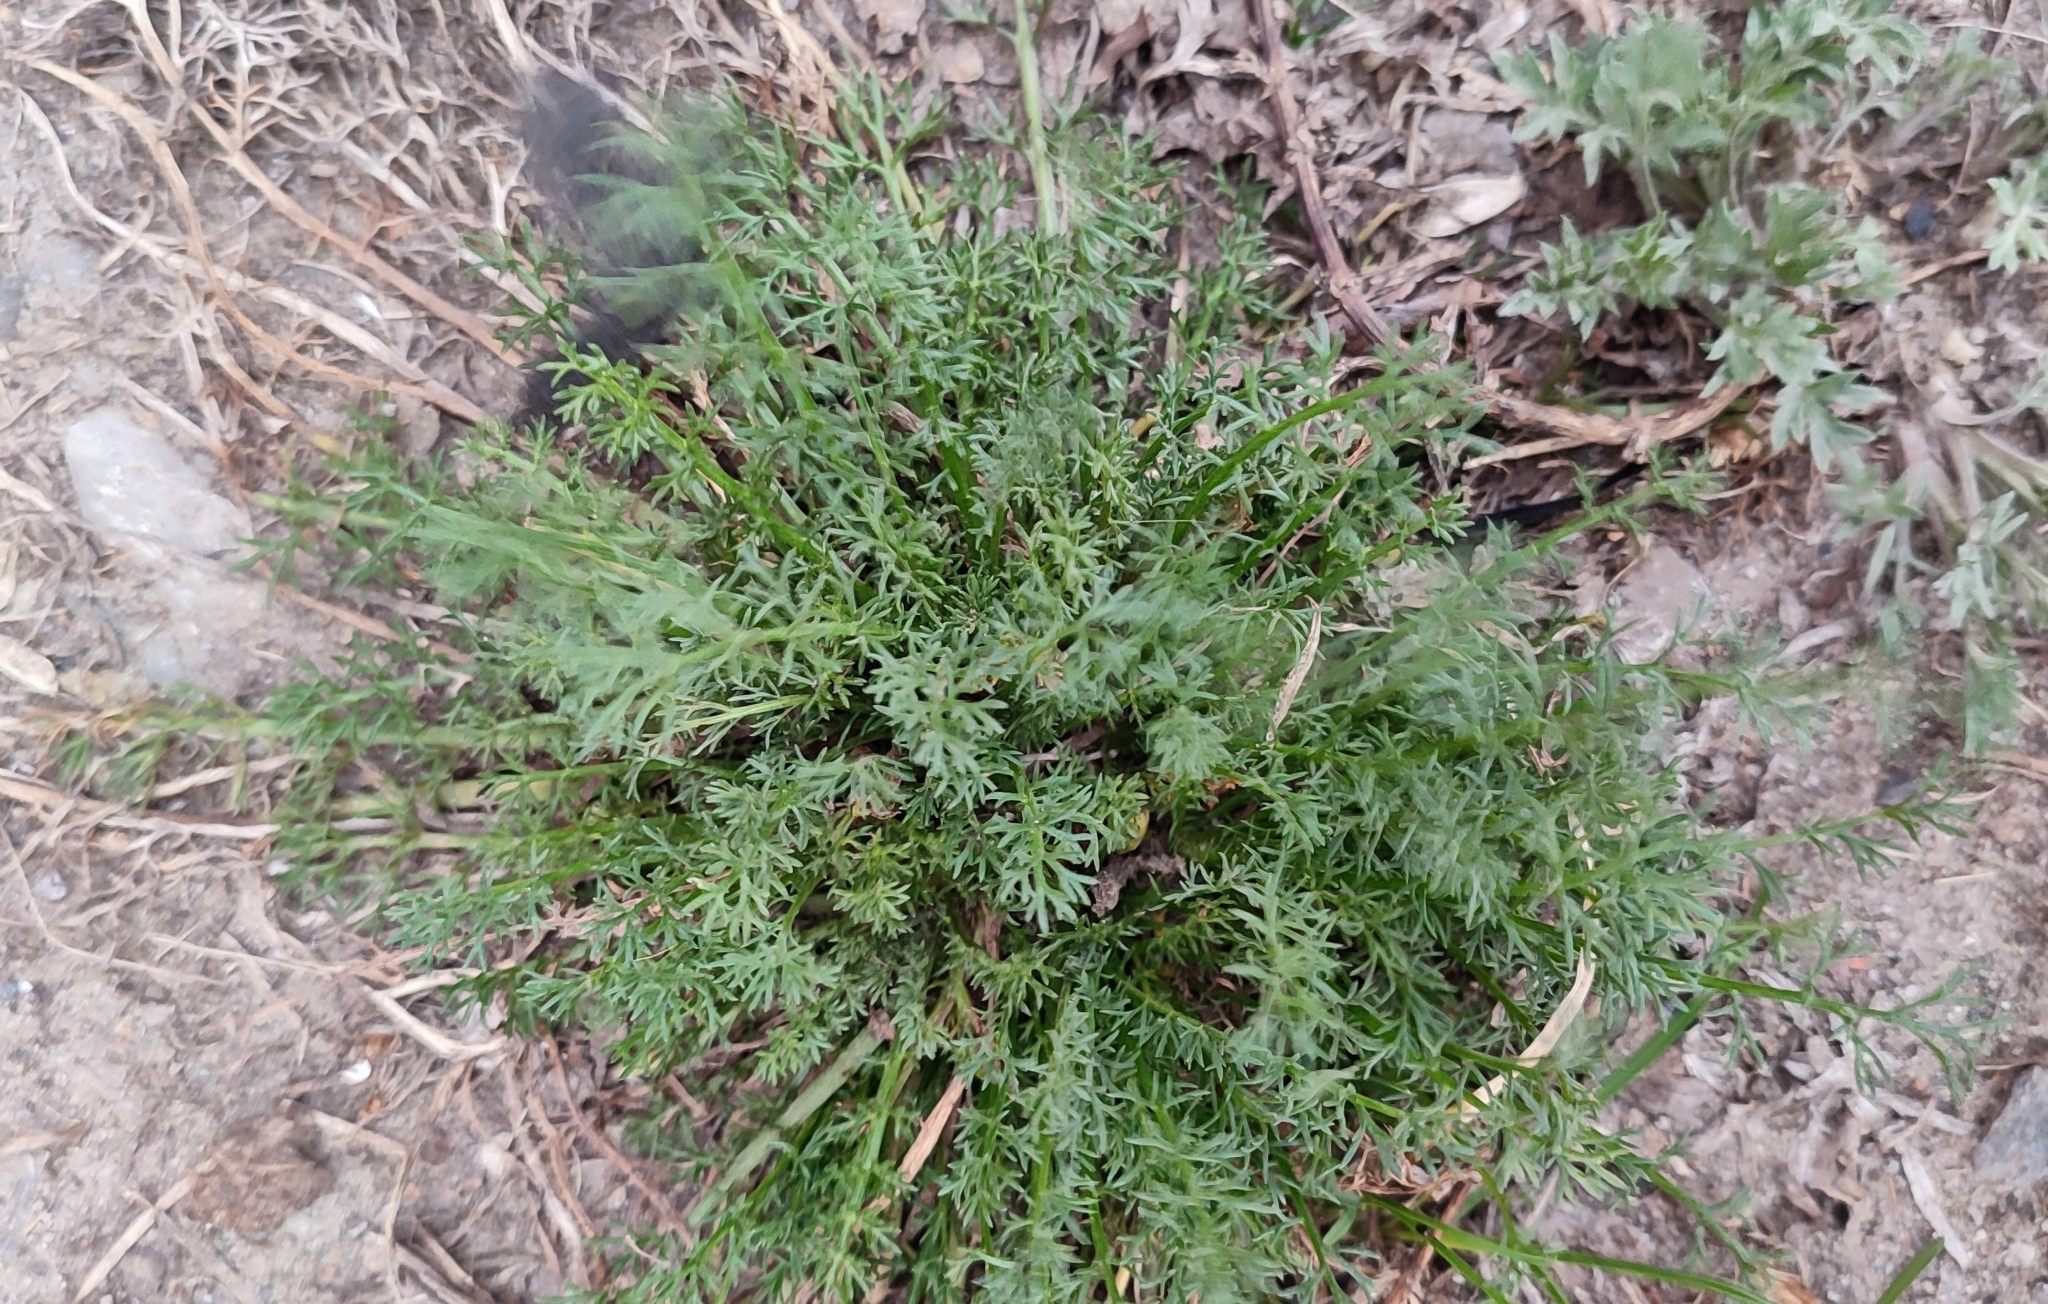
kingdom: Plantae
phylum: Tracheophyta
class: Magnoliopsida
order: Asterales
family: Asteraceae
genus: Tripleurospermum
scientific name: Tripleurospermum inodorum
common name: Scentless mayweed
